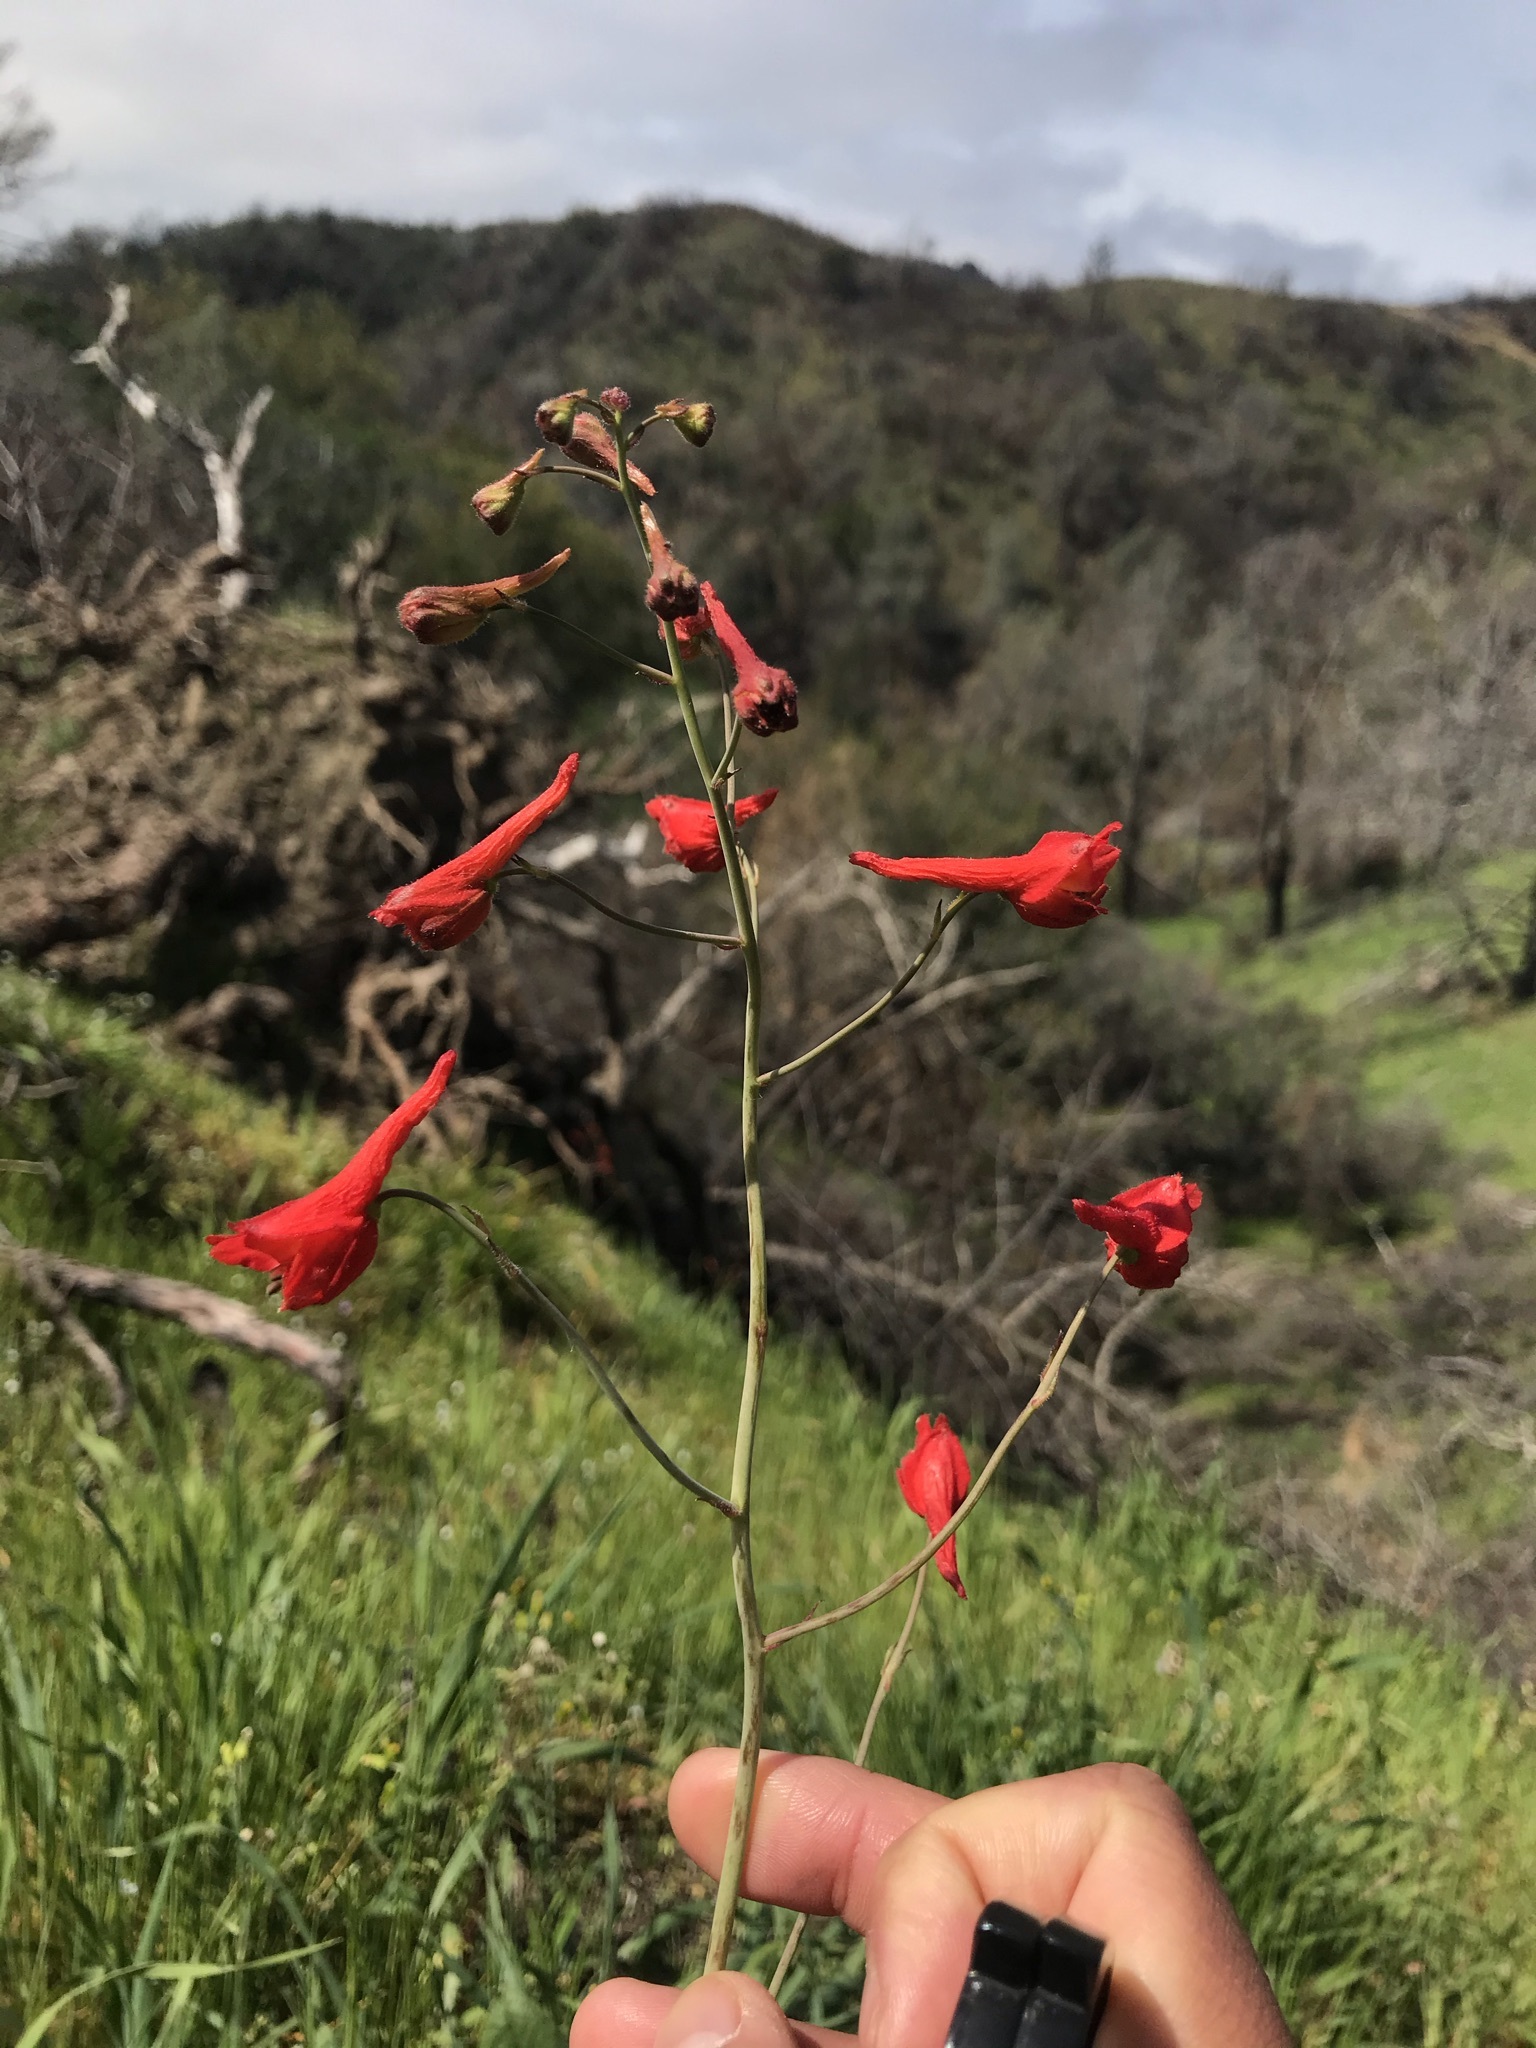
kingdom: Plantae
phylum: Tracheophyta
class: Magnoliopsida
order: Ranunculales
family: Ranunculaceae
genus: Delphinium
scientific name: Delphinium nudicaule
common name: Red larkspur
